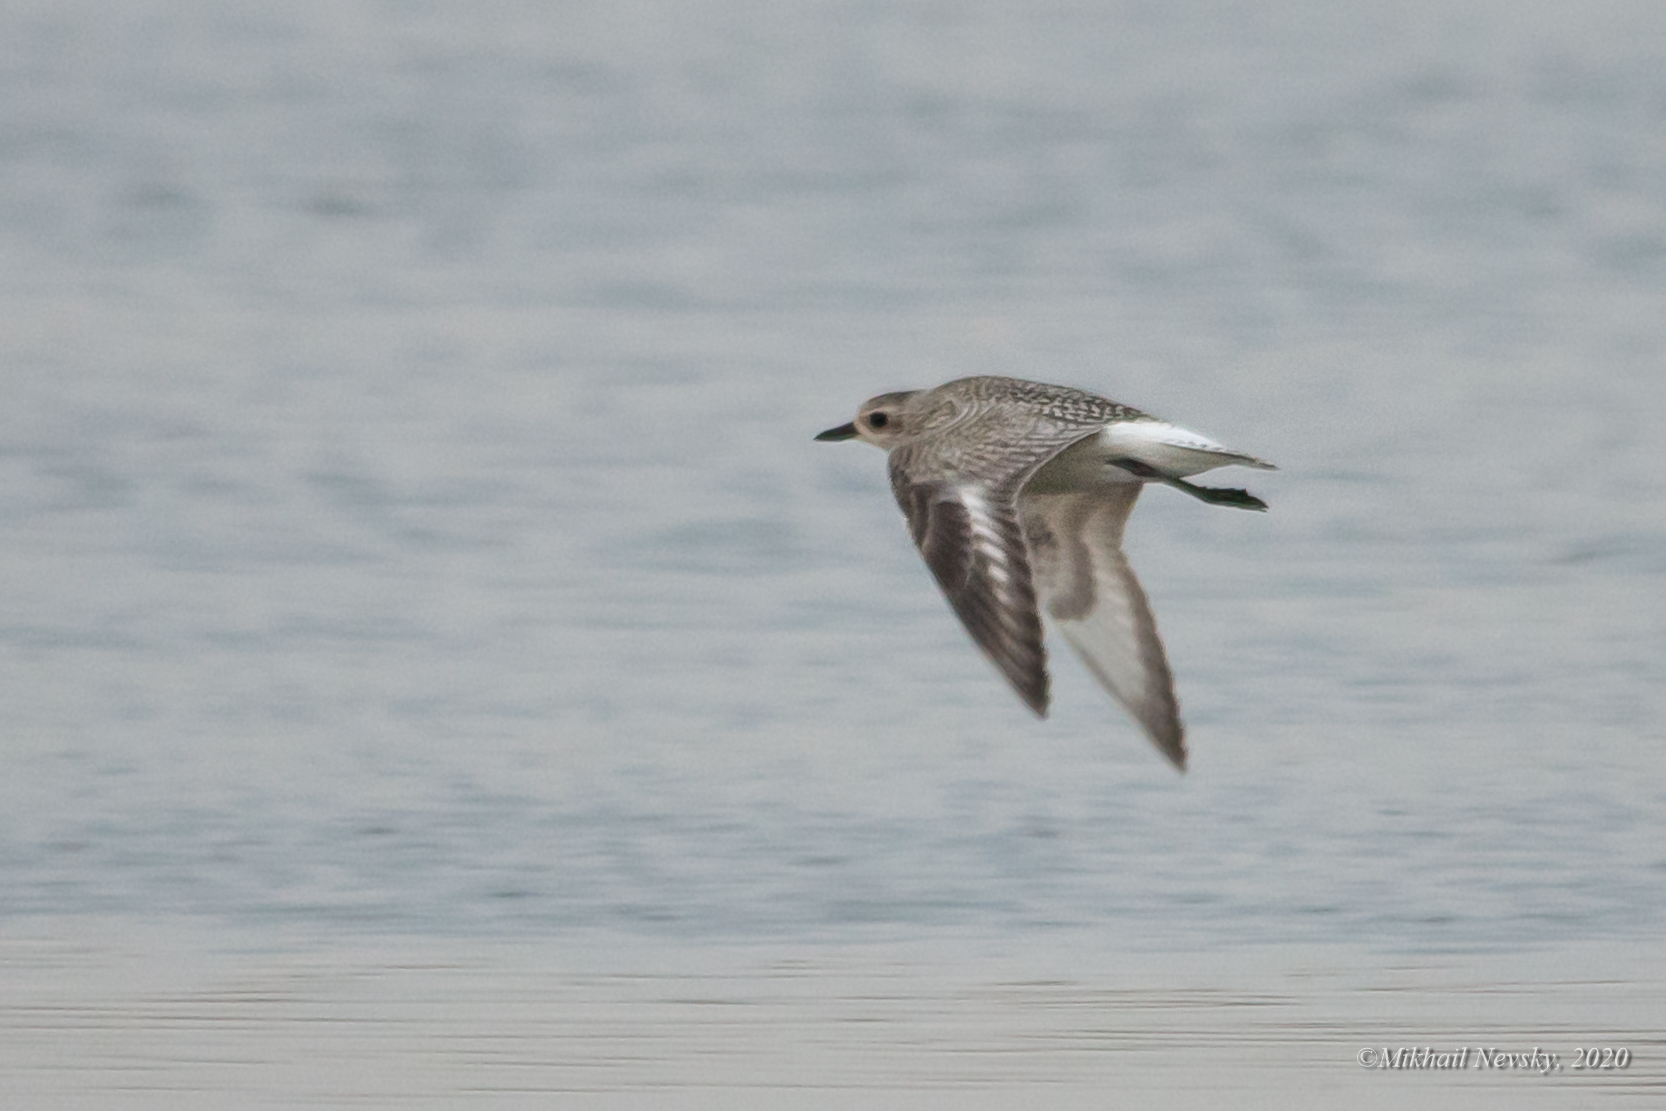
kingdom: Animalia
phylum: Chordata
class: Aves
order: Charadriiformes
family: Charadriidae
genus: Pluvialis
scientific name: Pluvialis squatarola
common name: Grey plover
